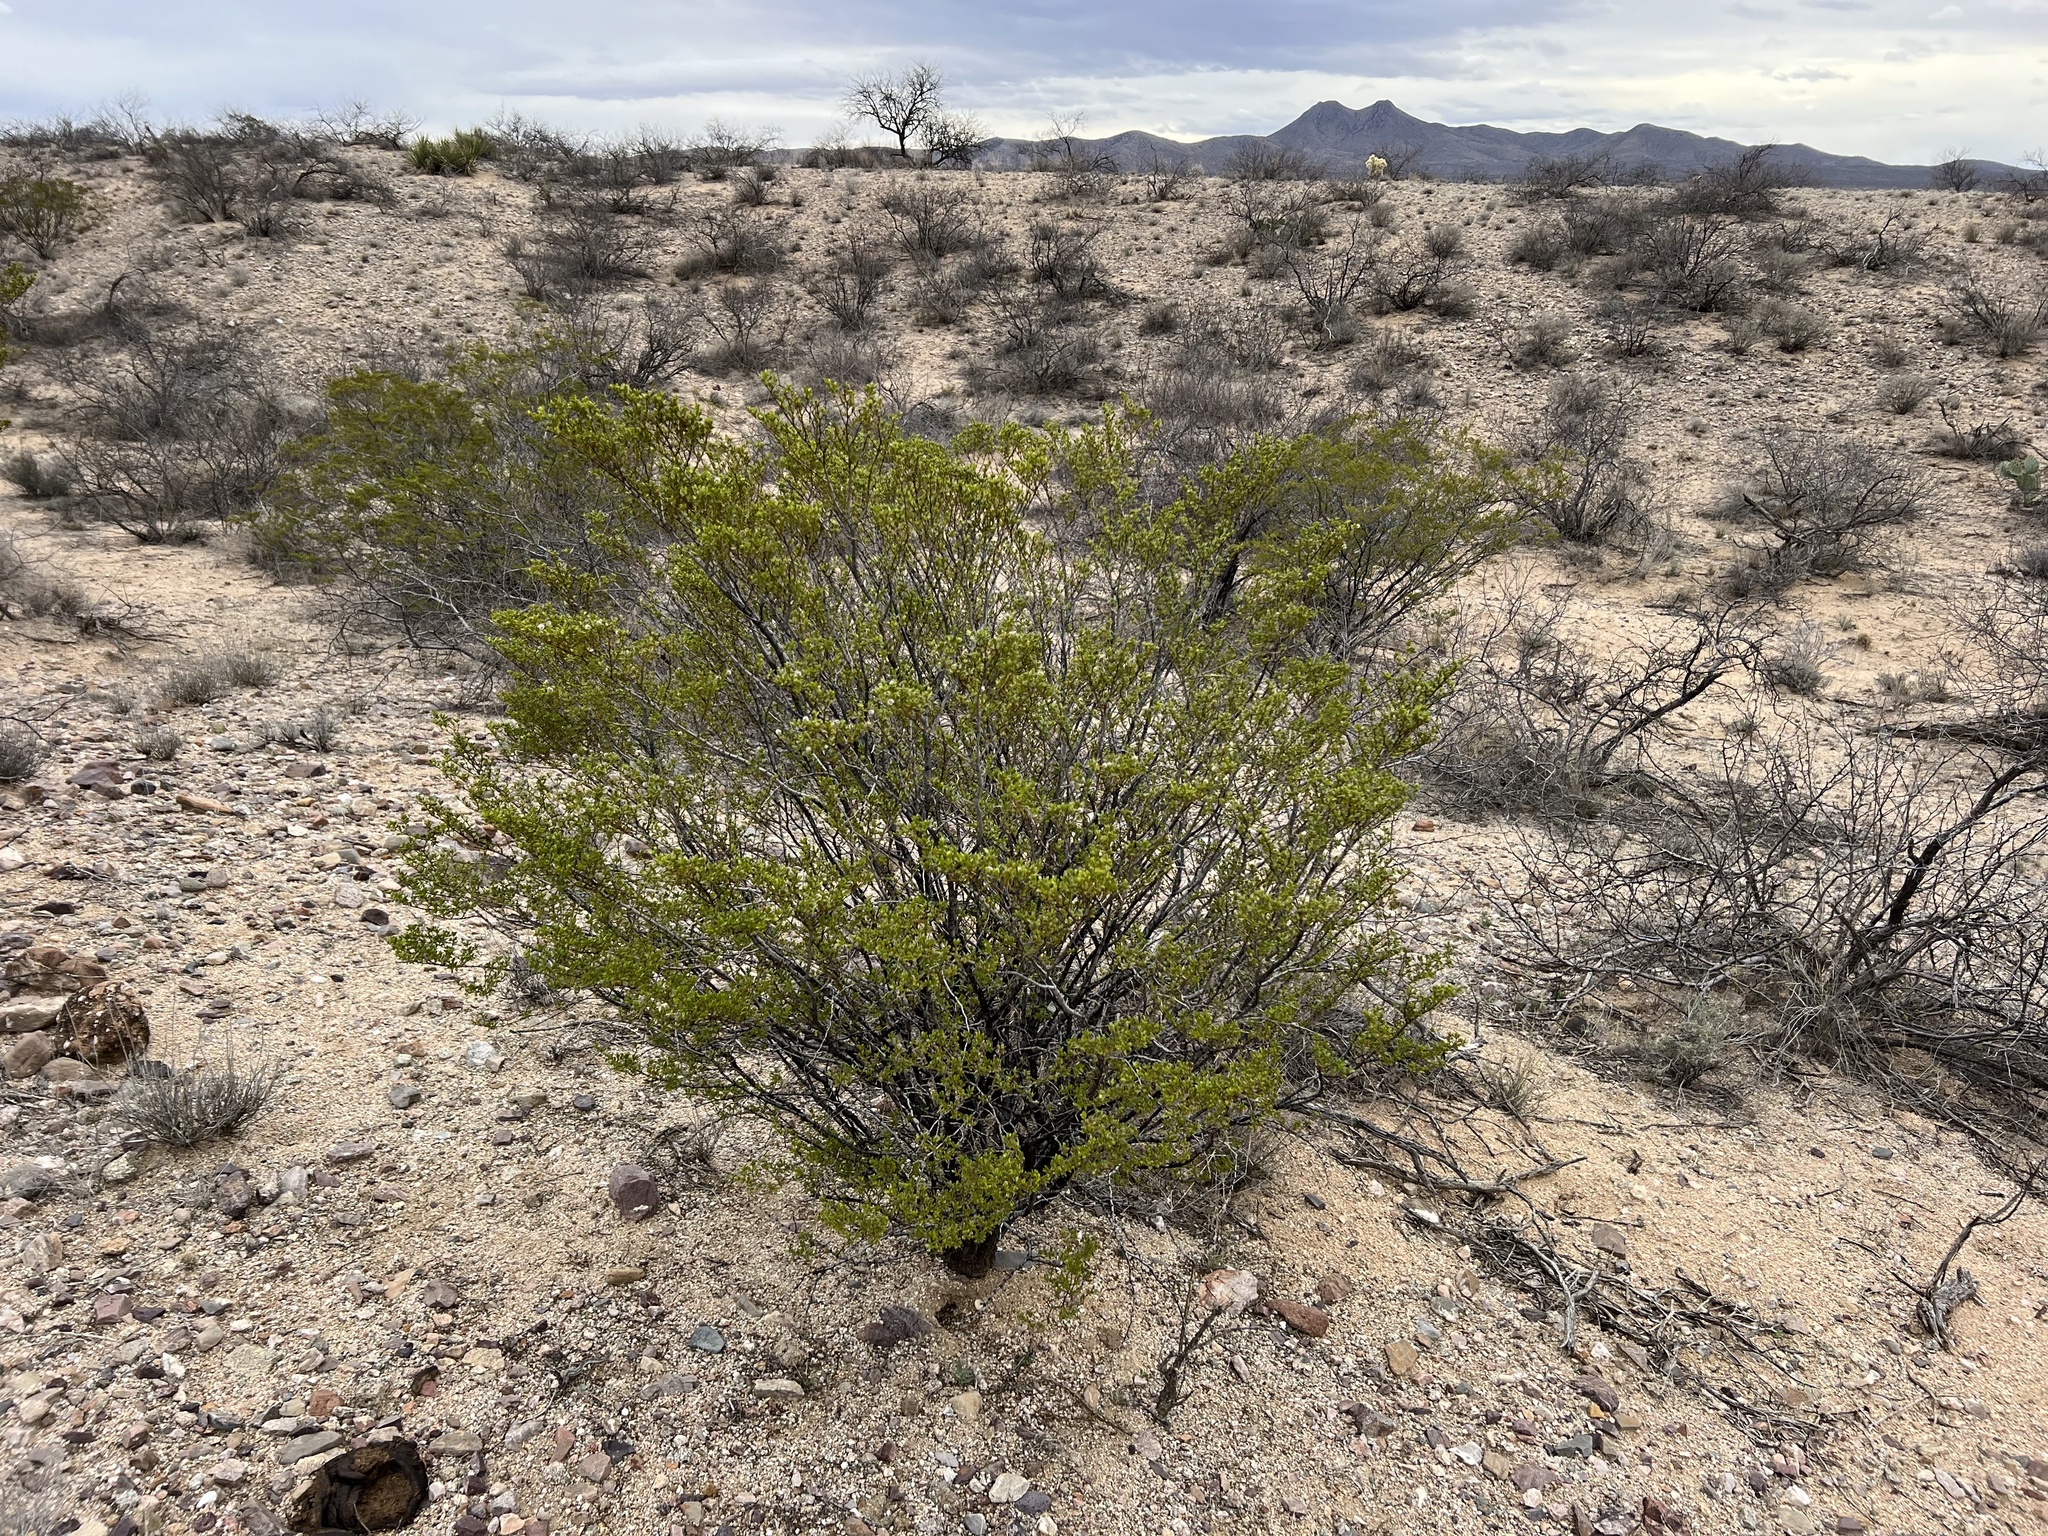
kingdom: Plantae
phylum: Tracheophyta
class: Magnoliopsida
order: Zygophyllales
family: Zygophyllaceae
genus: Larrea
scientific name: Larrea tridentata
